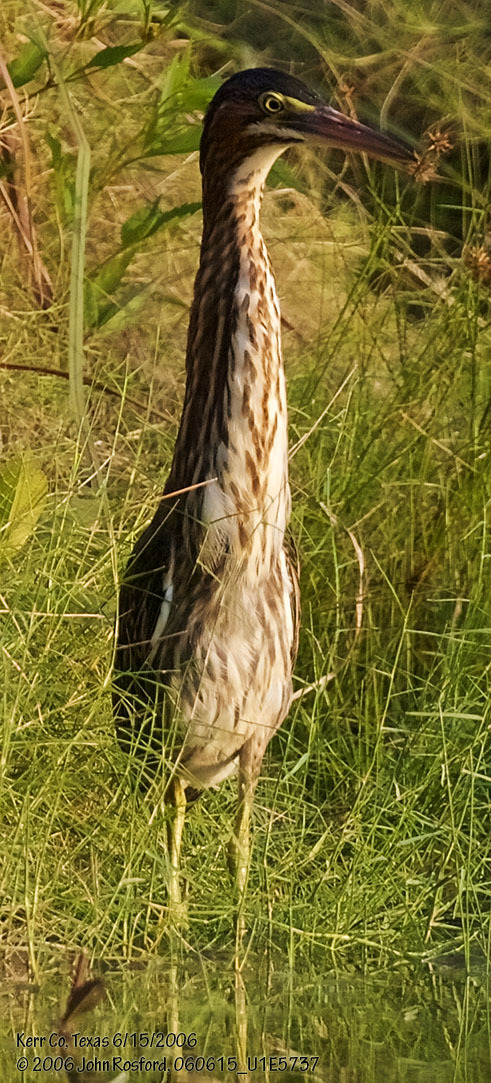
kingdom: Animalia
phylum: Chordata
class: Aves
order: Pelecaniformes
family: Ardeidae
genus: Butorides
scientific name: Butorides virescens
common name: Green heron
